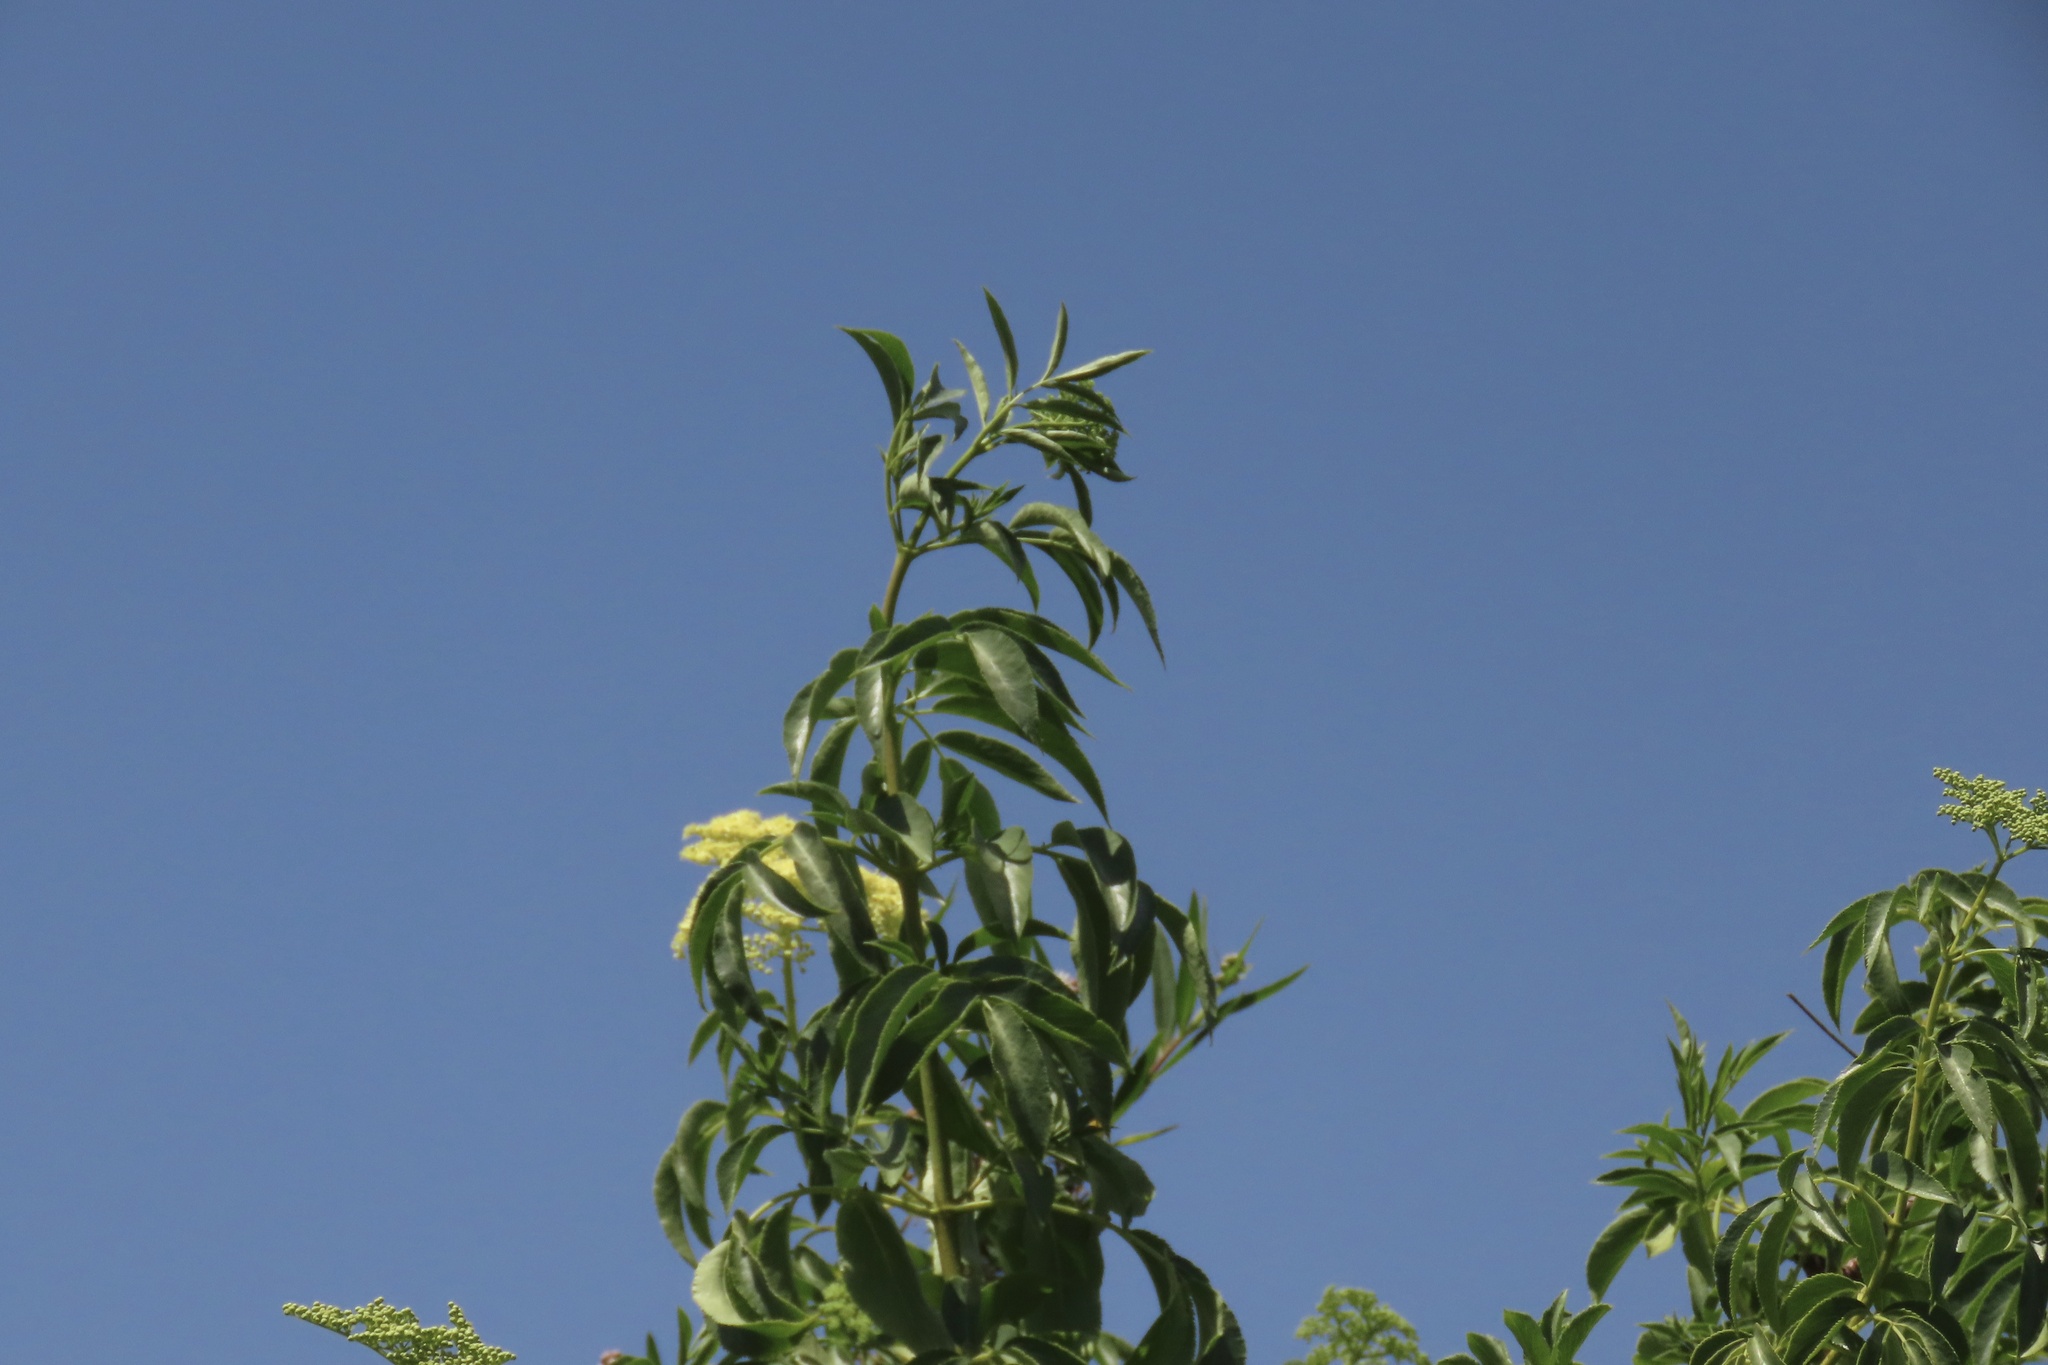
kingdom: Plantae
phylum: Tracheophyta
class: Magnoliopsida
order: Dipsacales
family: Viburnaceae
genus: Sambucus
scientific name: Sambucus cerulea
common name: Blue elder
